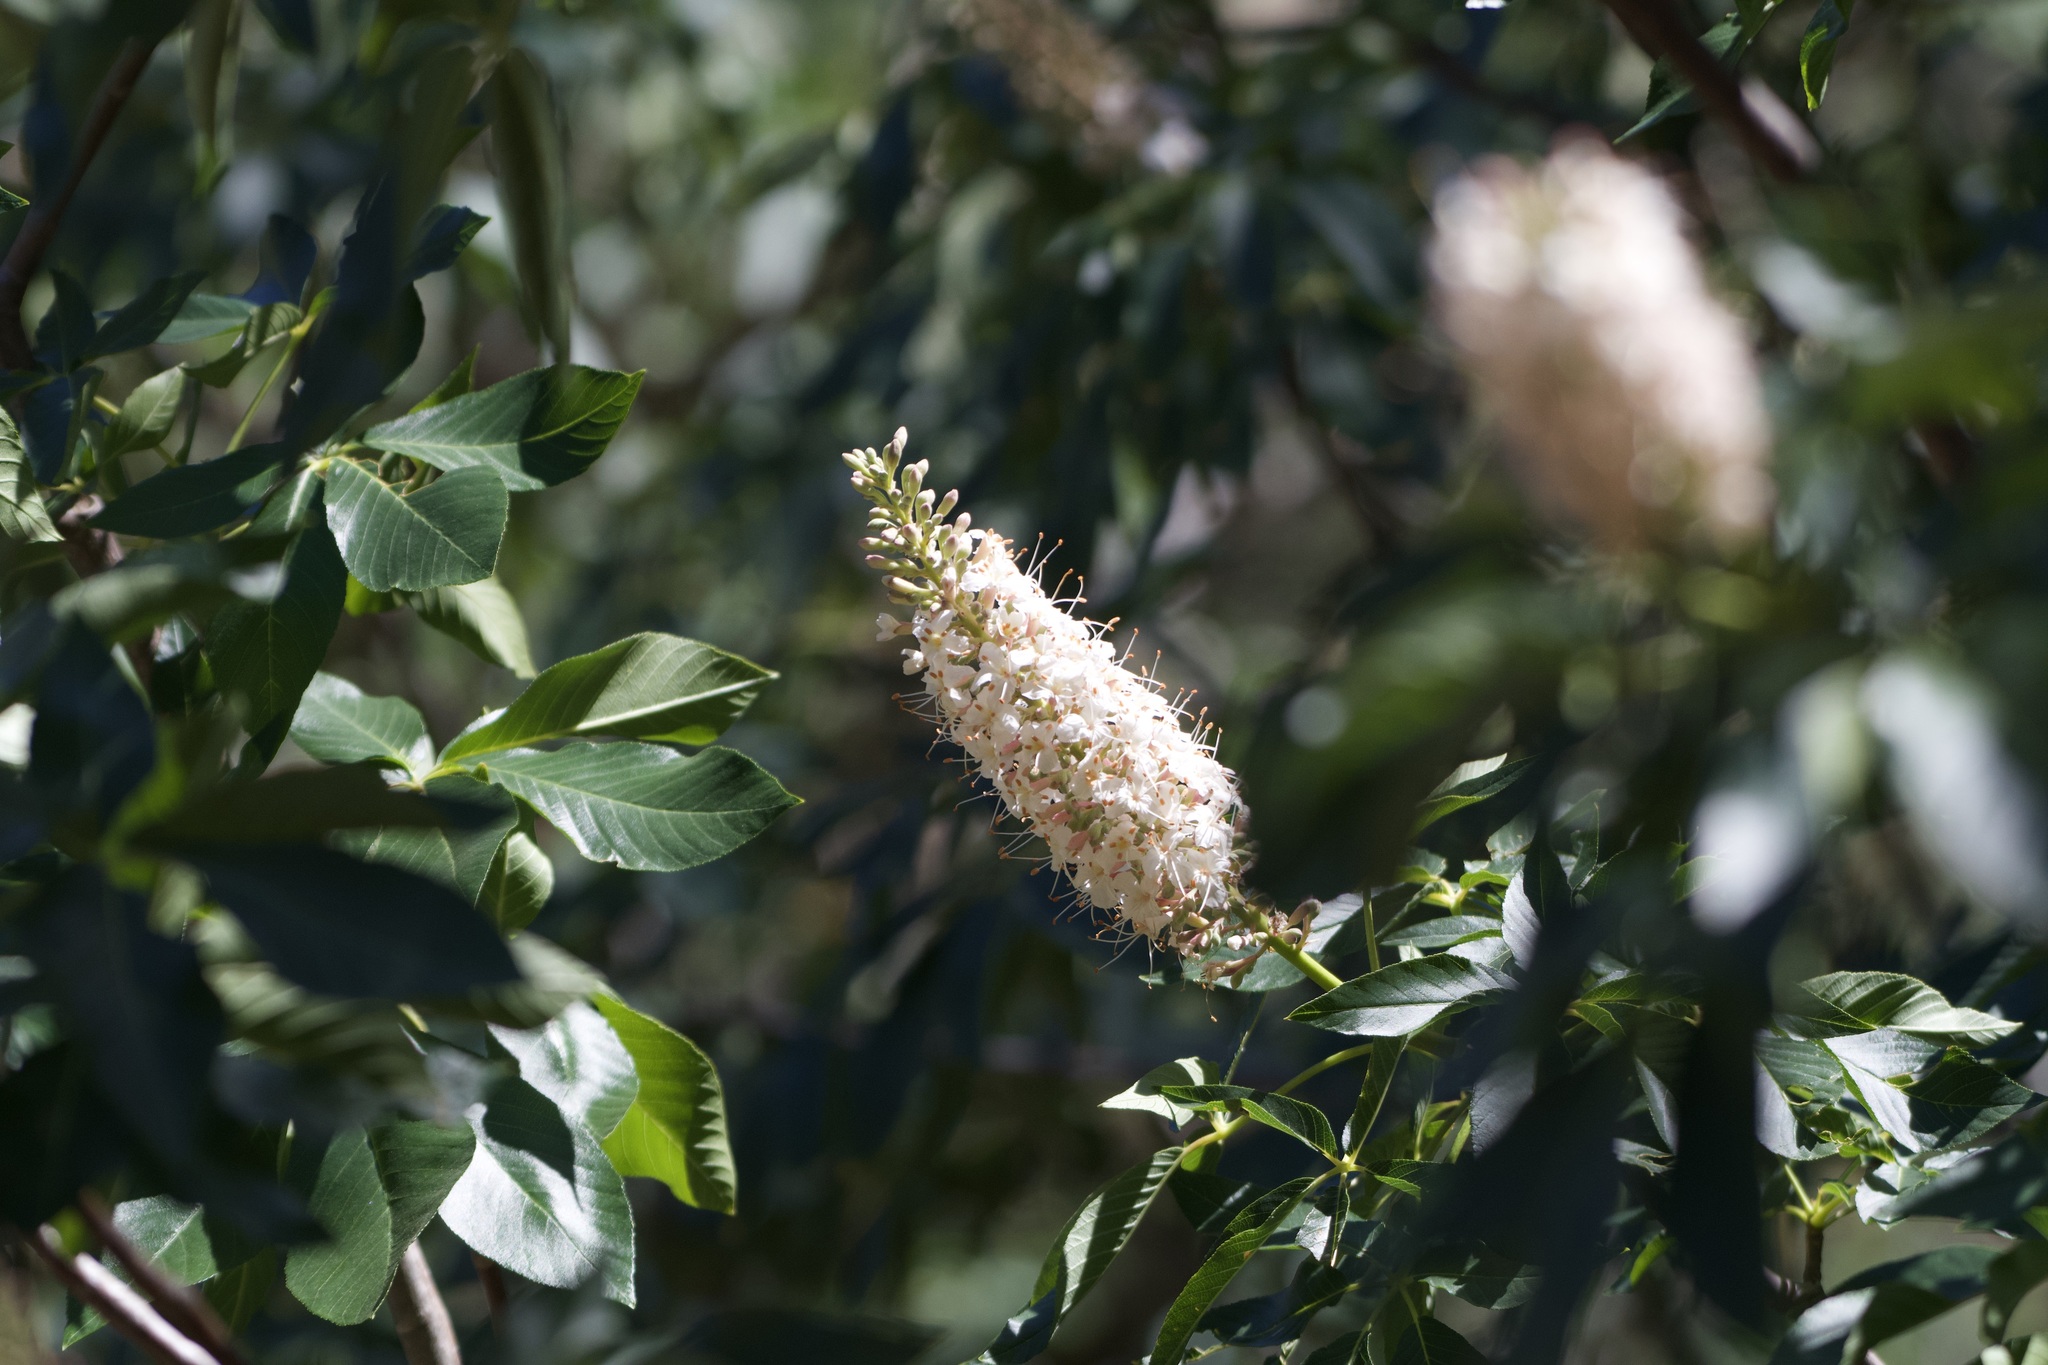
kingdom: Plantae
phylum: Tracheophyta
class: Magnoliopsida
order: Sapindales
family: Sapindaceae
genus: Aesculus
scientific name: Aesculus californica
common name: California buckeye
